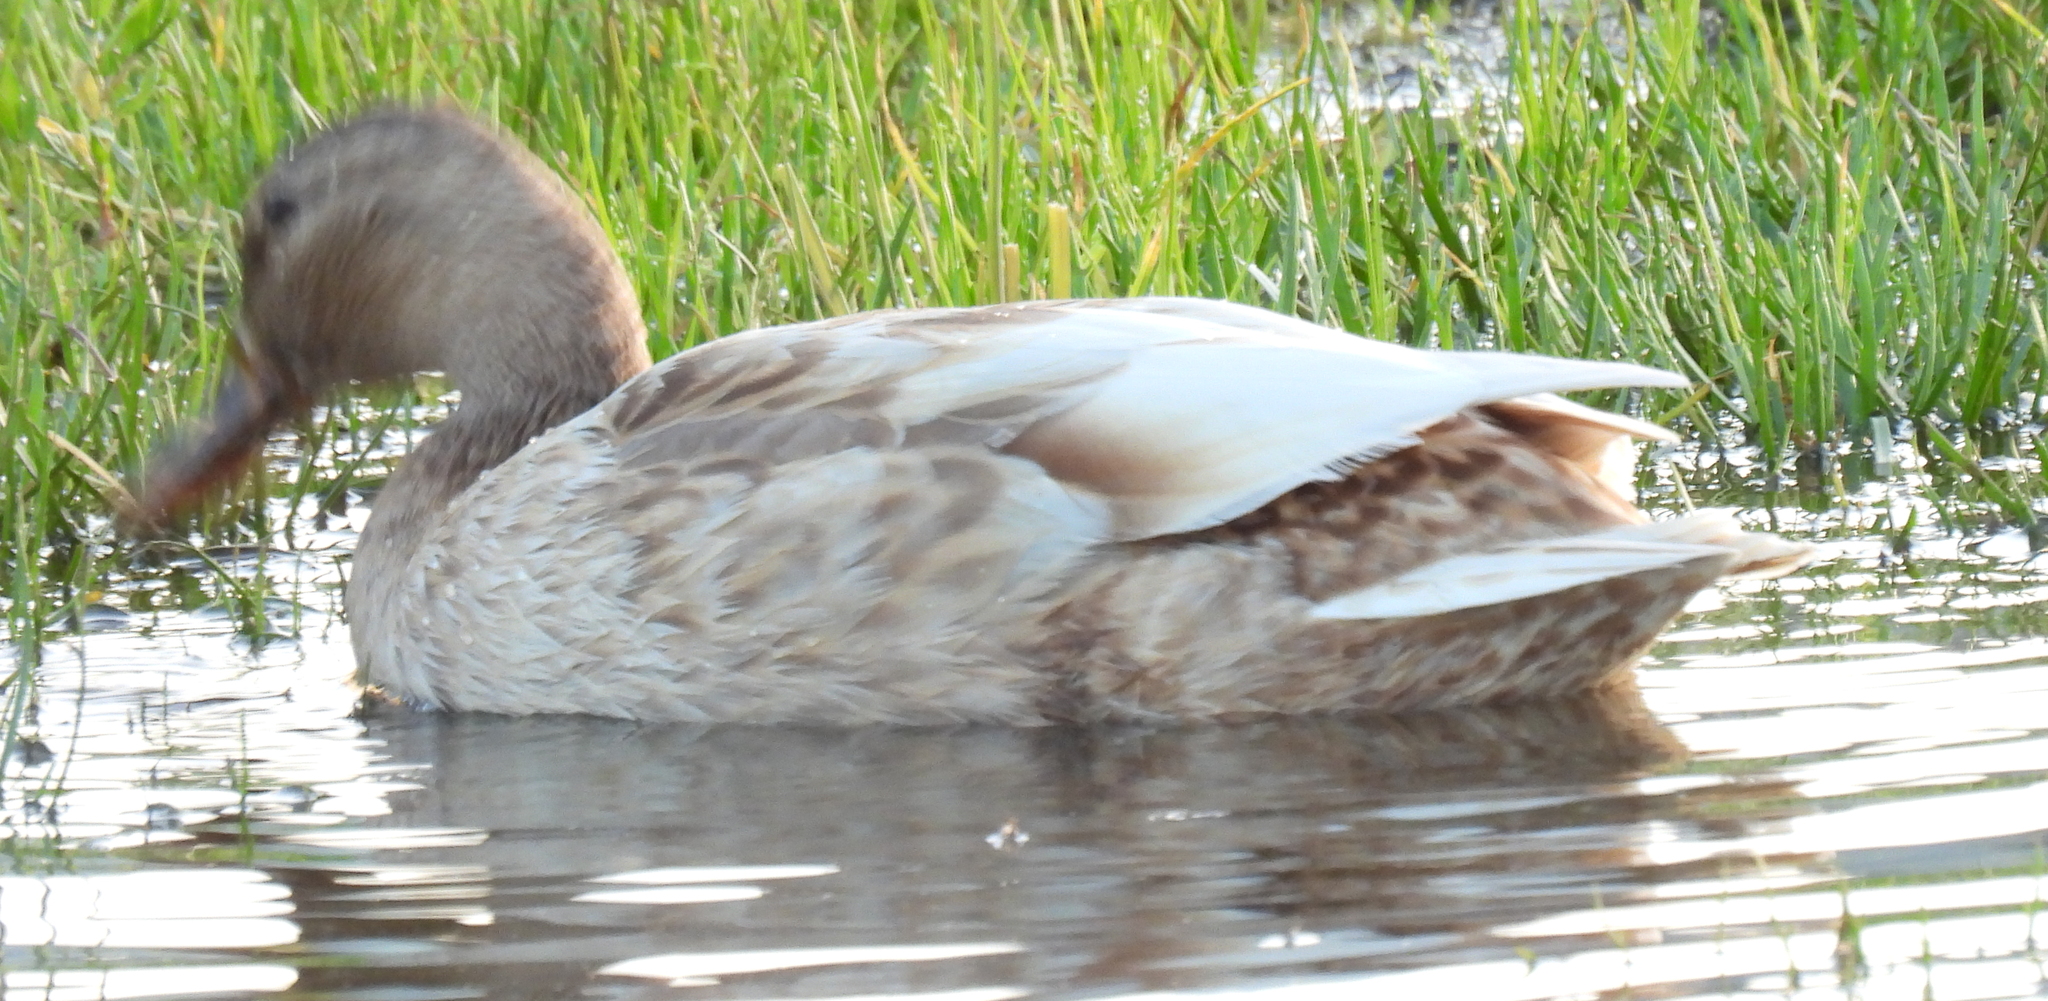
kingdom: Animalia
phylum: Chordata
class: Aves
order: Anseriformes
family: Anatidae
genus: Anas
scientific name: Anas platyrhynchos
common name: Mallard
